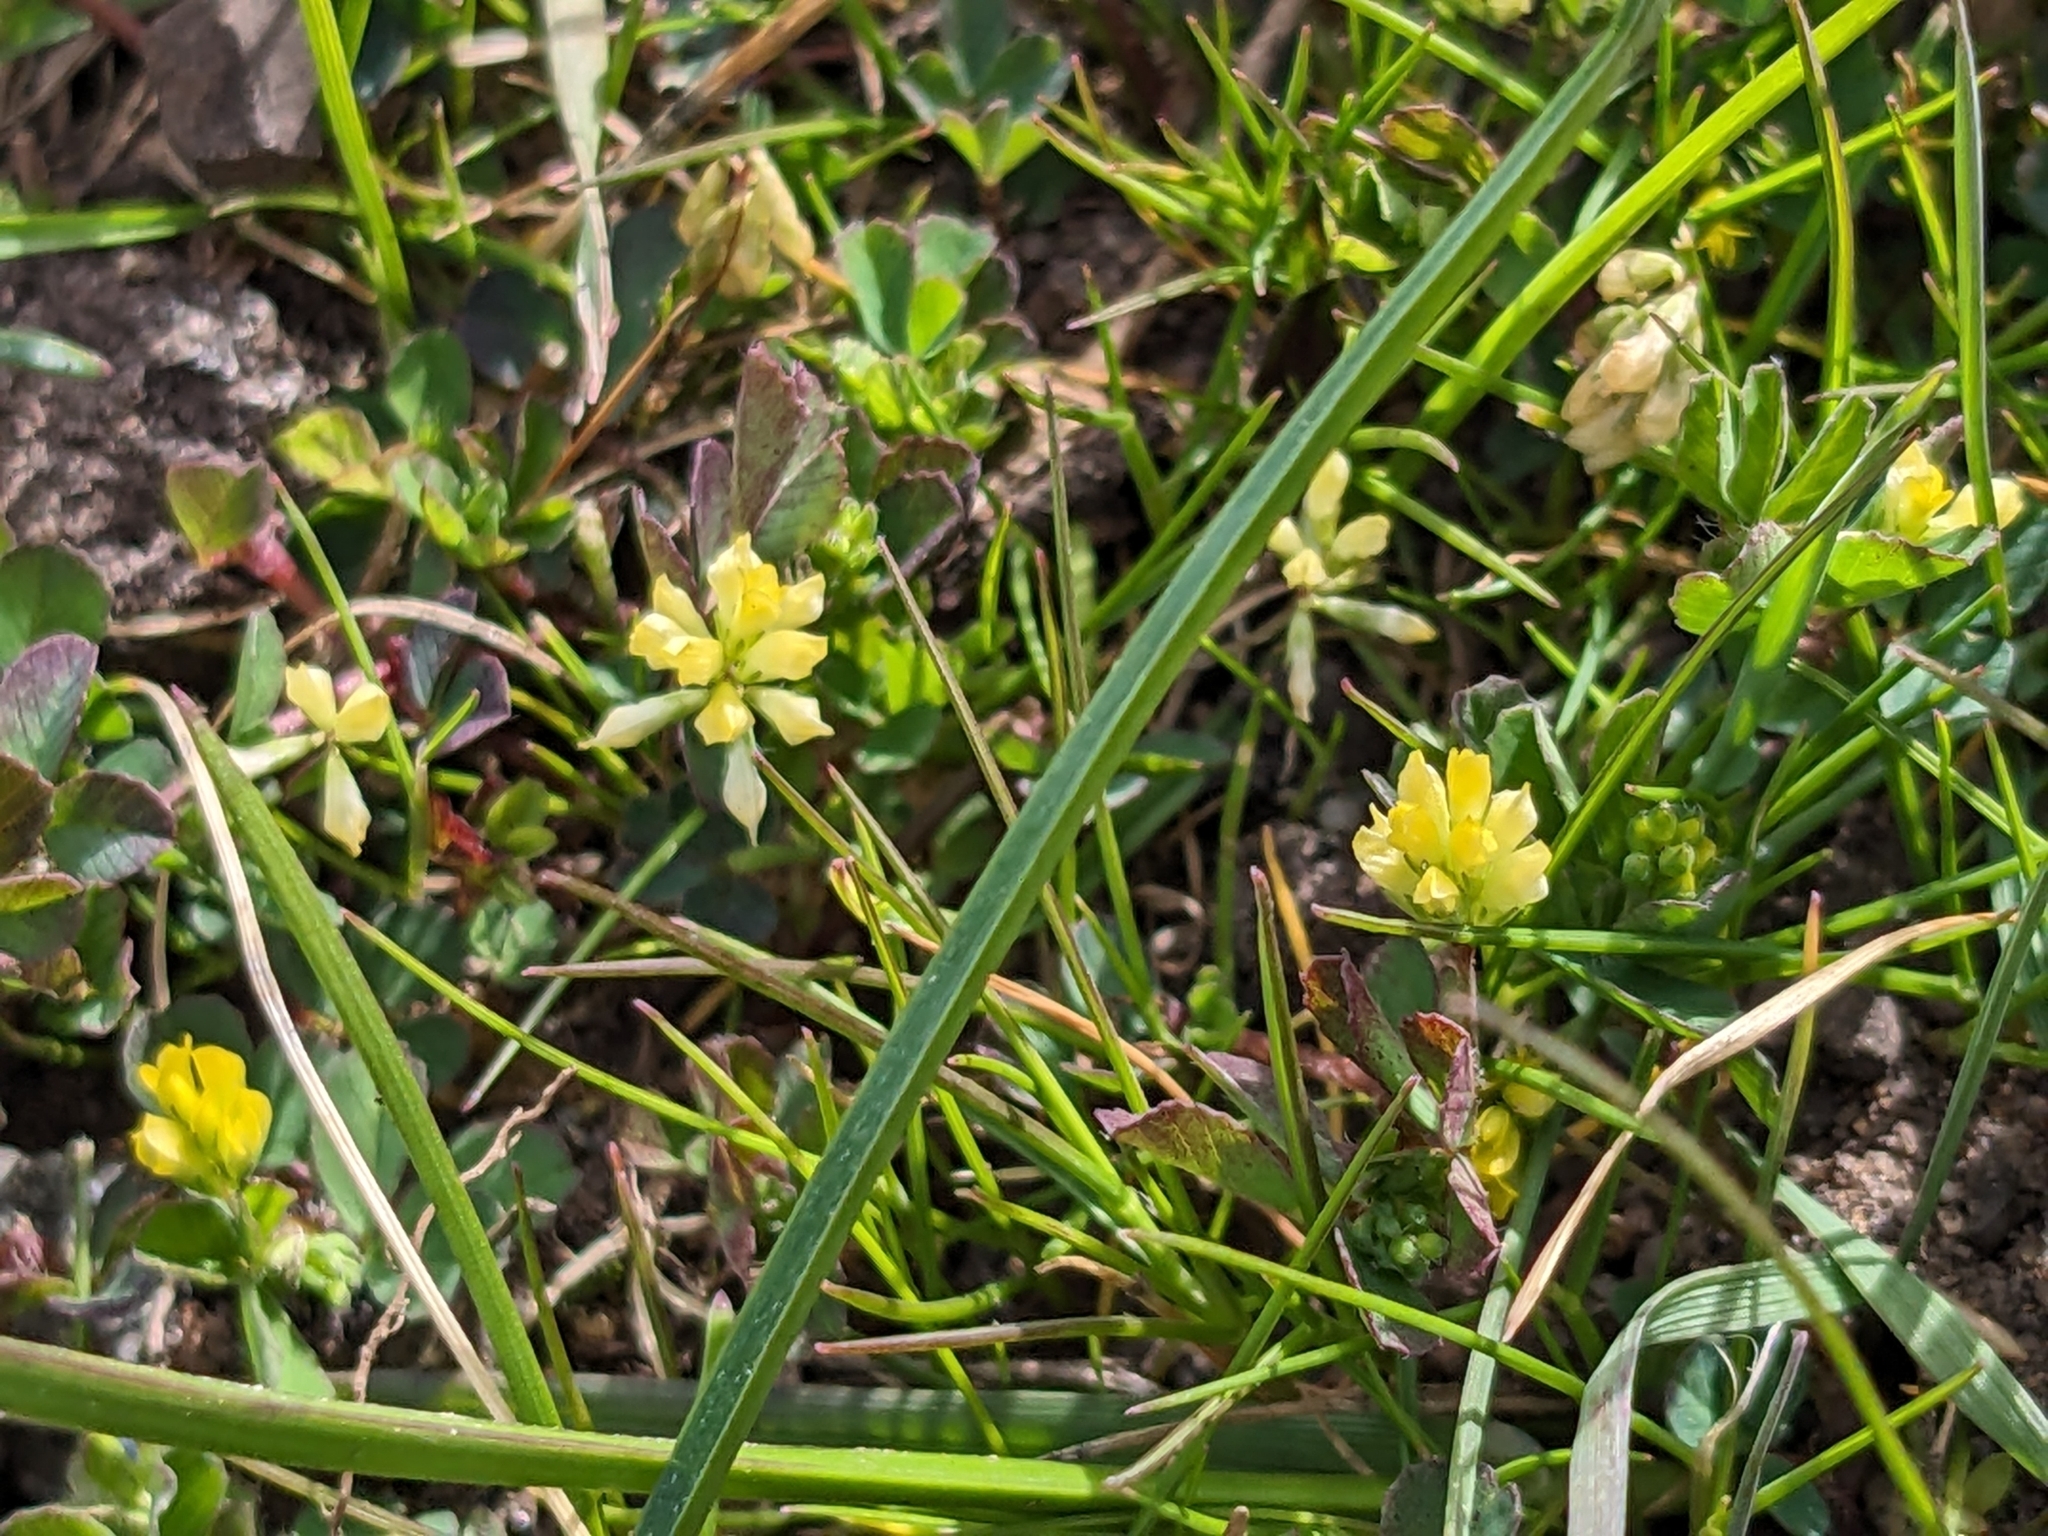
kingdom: Plantae
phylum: Tracheophyta
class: Magnoliopsida
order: Fabales
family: Fabaceae
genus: Trifolium
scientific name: Trifolium dubium
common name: Suckling clover
